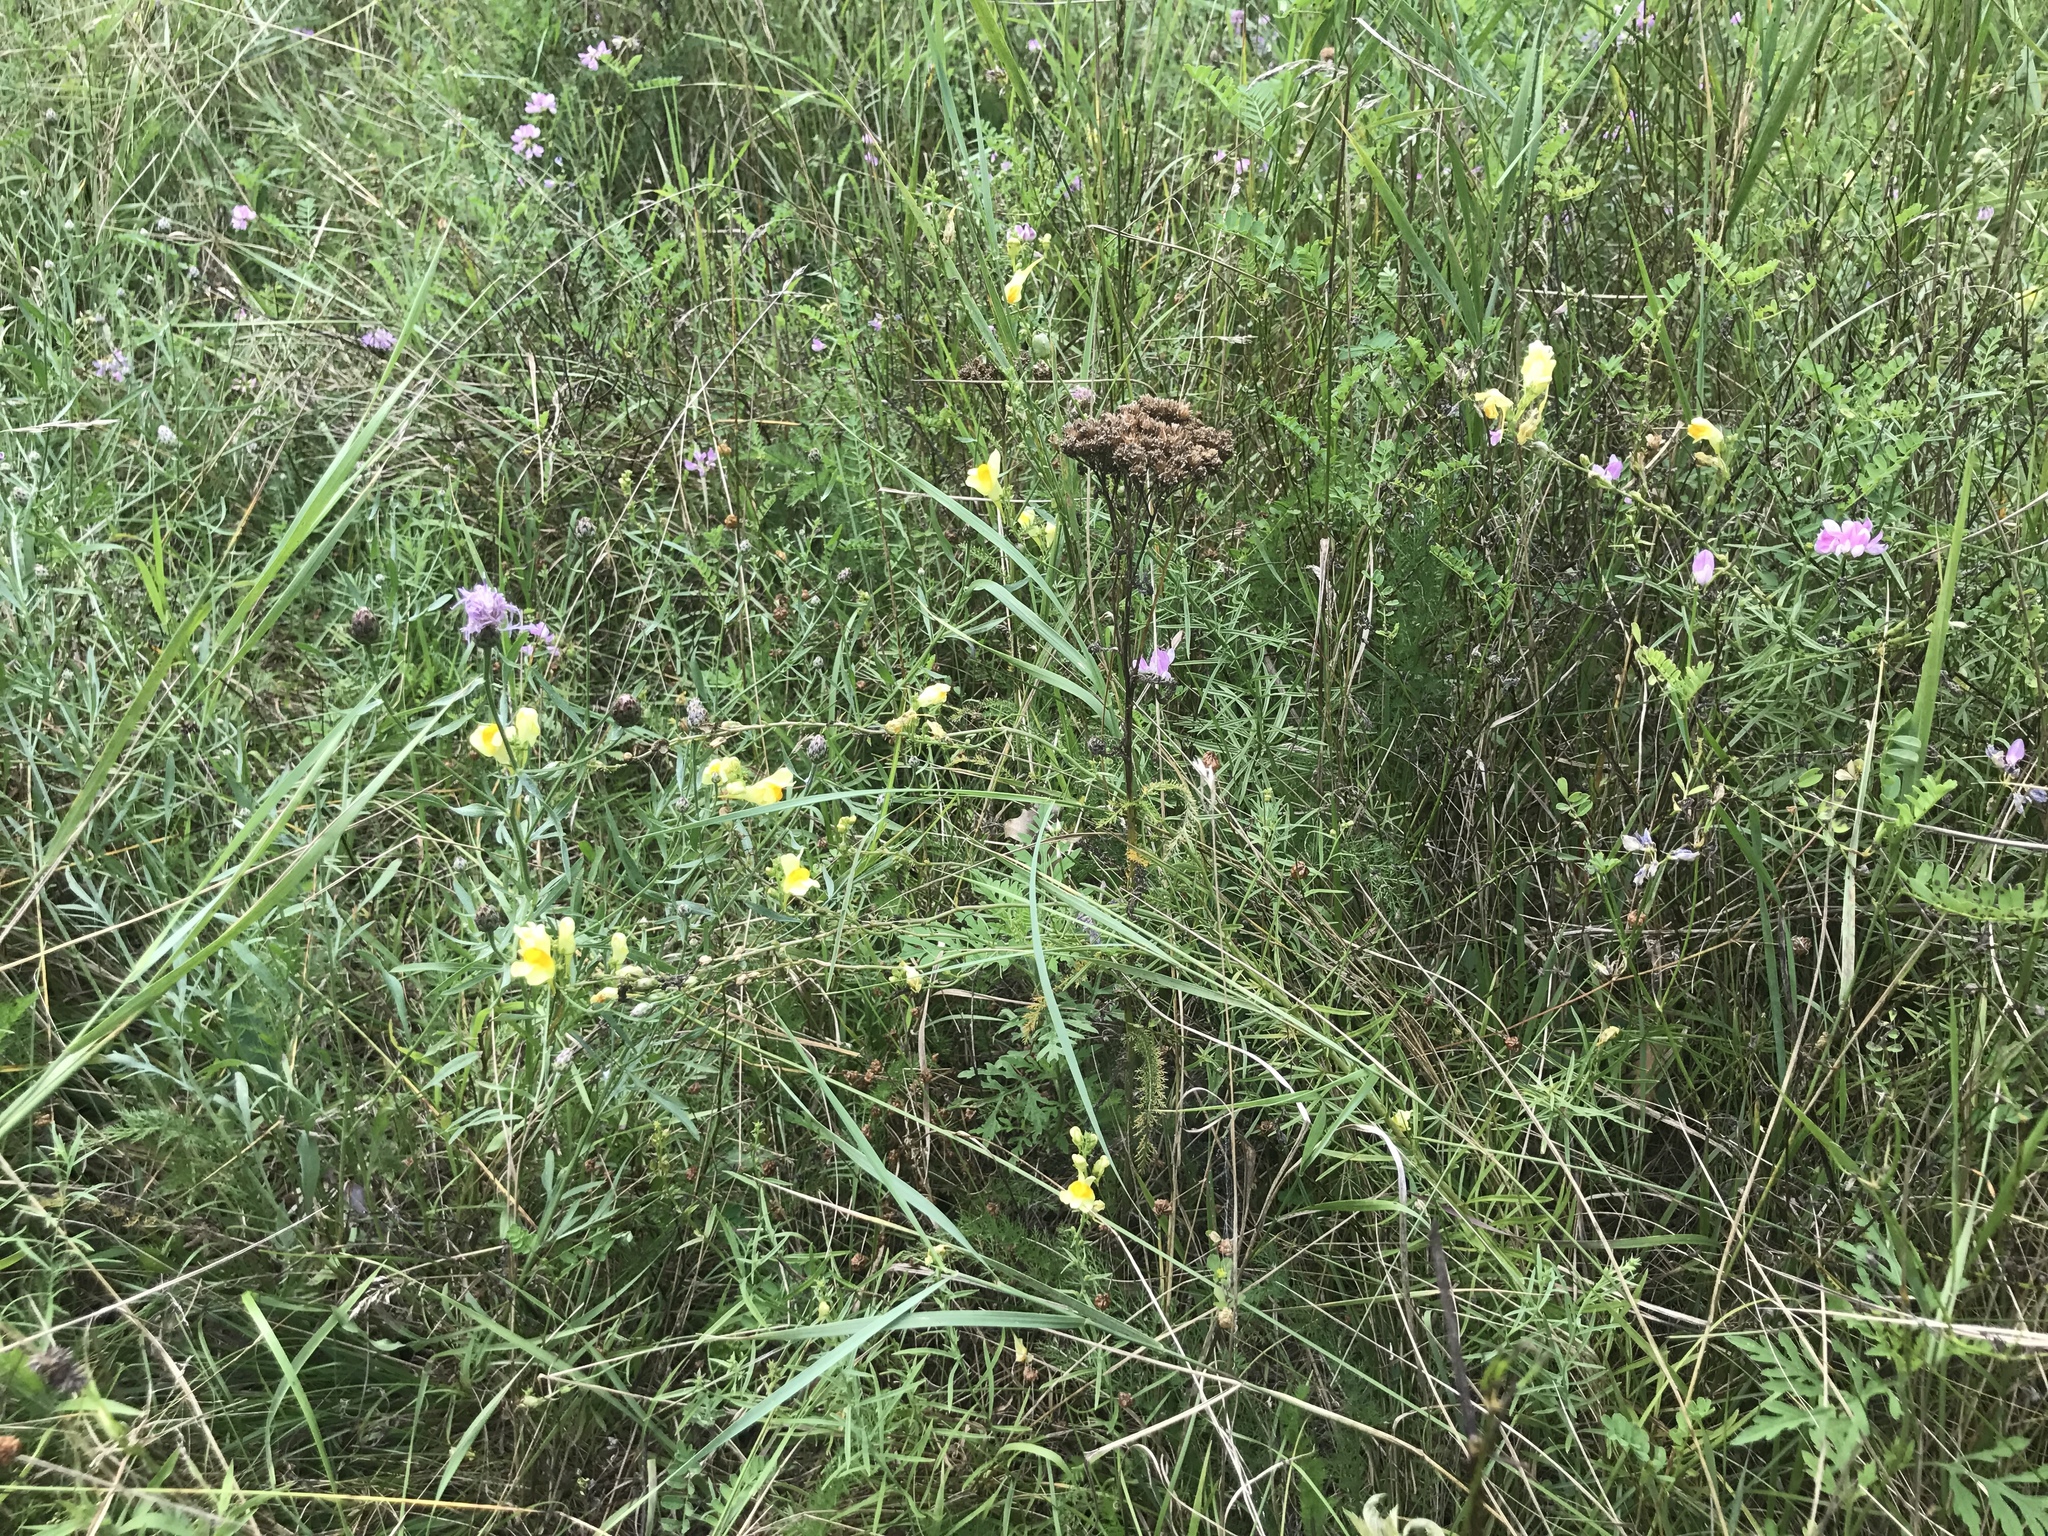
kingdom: Plantae
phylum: Tracheophyta
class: Magnoliopsida
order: Lamiales
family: Plantaginaceae
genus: Linaria
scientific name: Linaria vulgaris
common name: Butter and eggs
